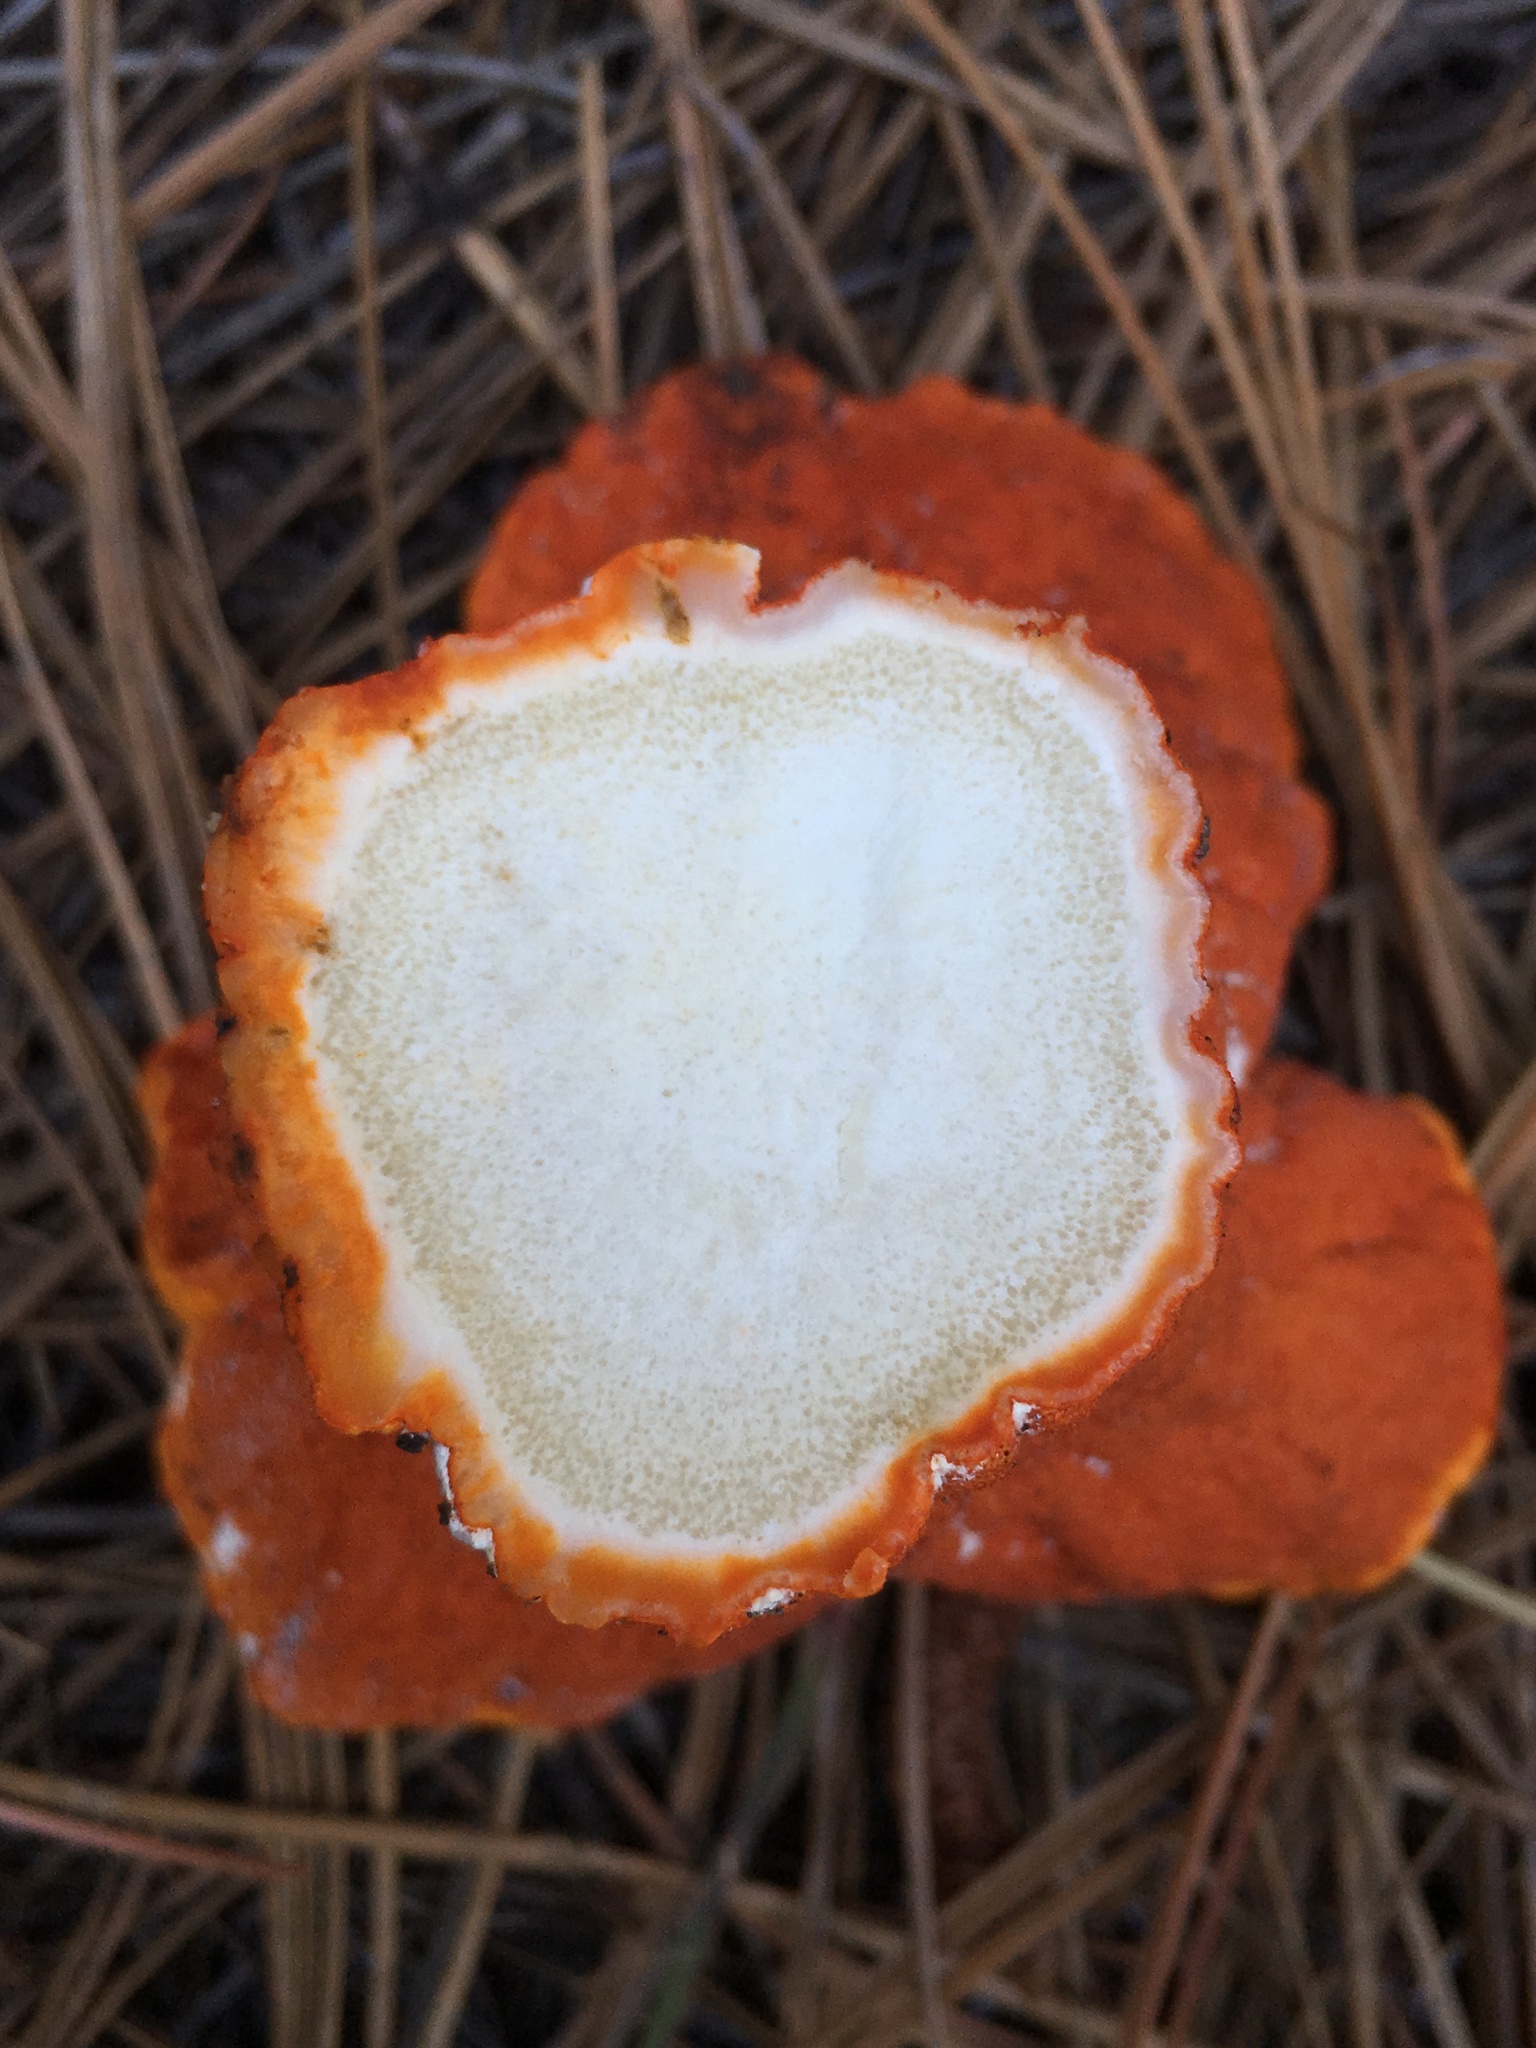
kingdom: Fungi
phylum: Ascomycota
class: Sordariomycetes
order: Hypocreales
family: Hypocreaceae
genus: Hypomyces
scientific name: Hypomyces lactifluorum
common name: Lobster mushroom
